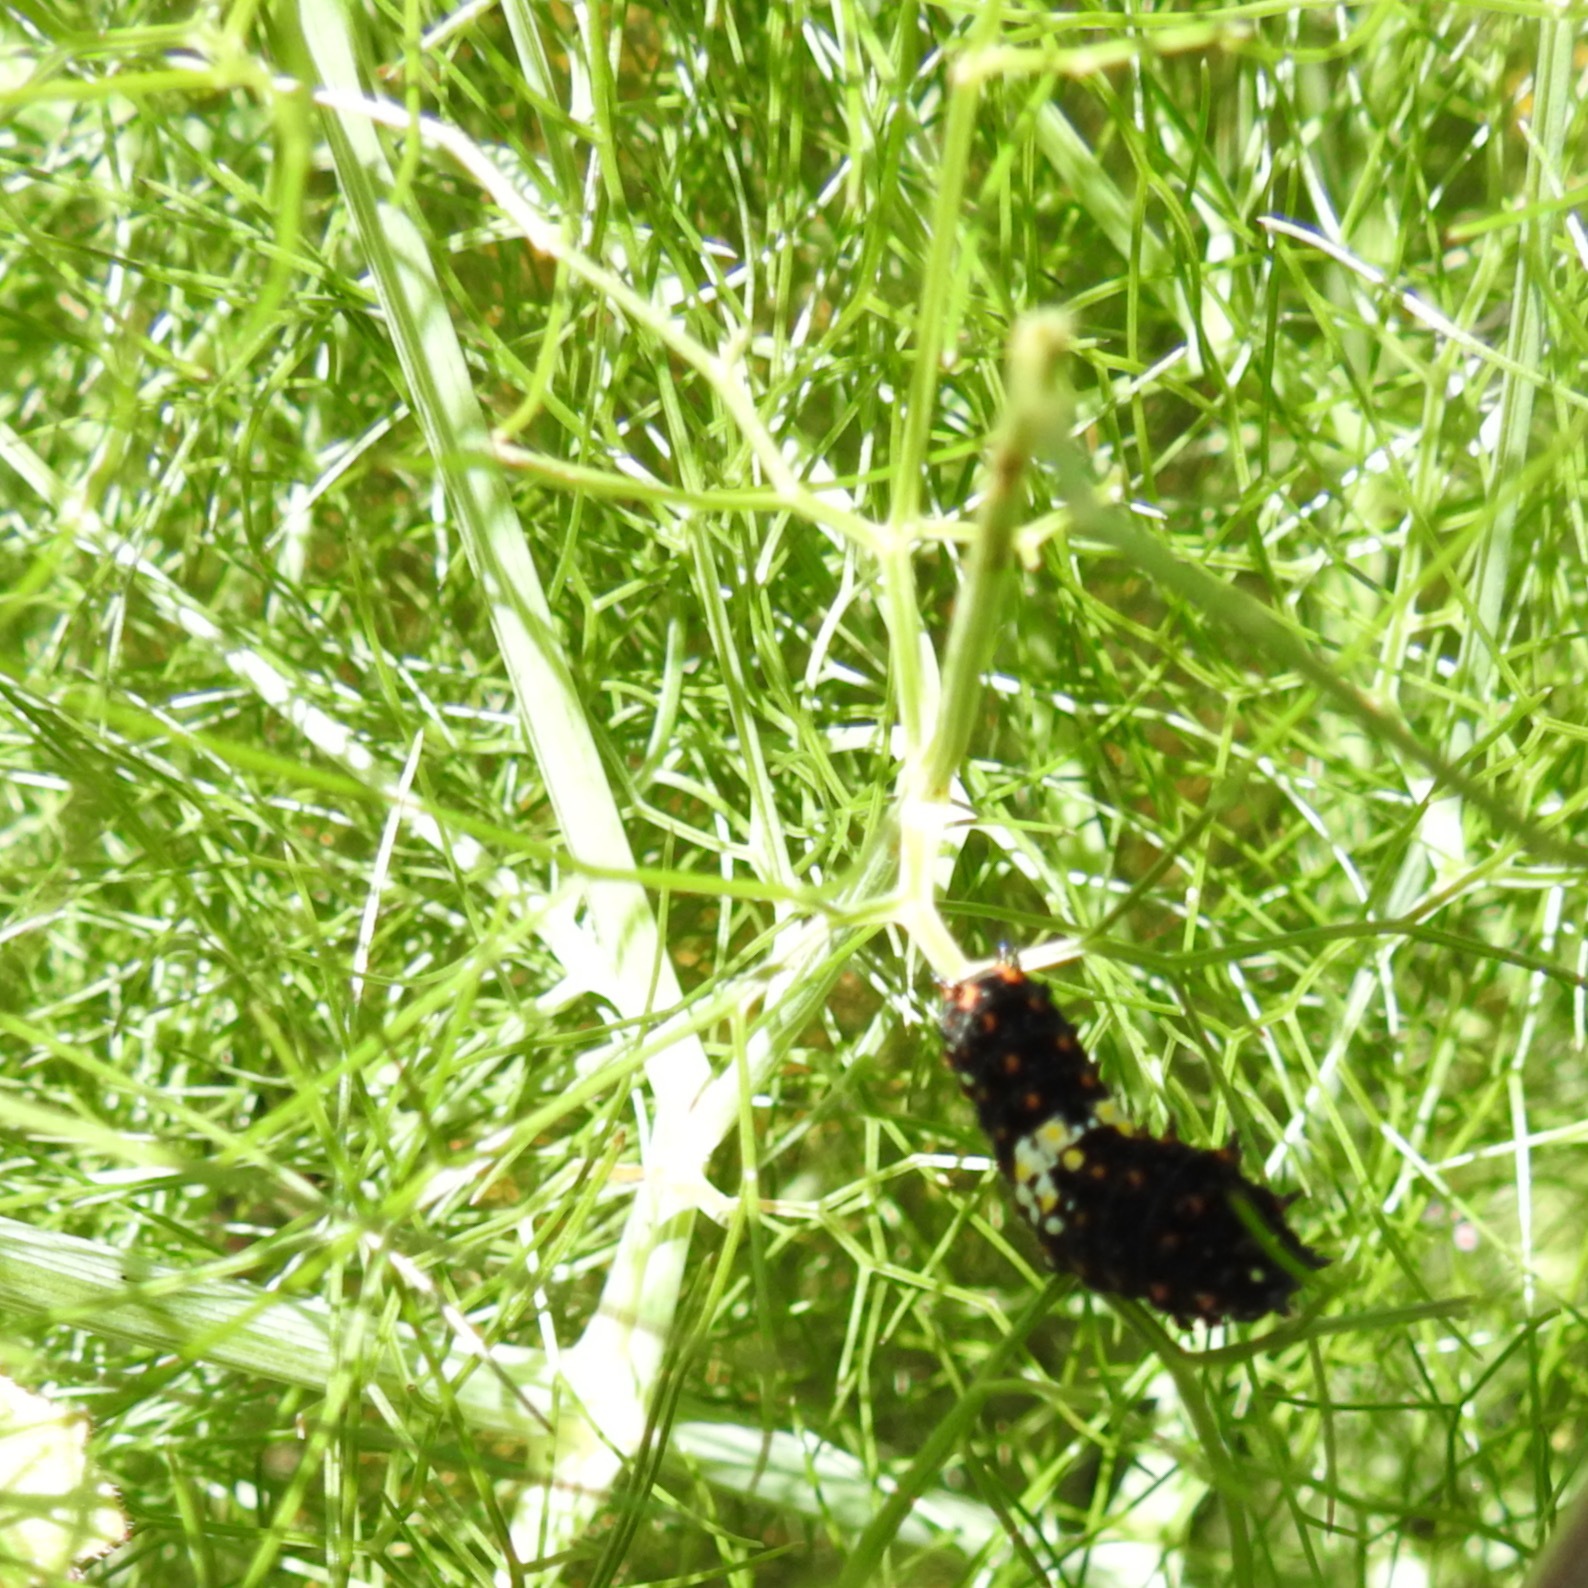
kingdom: Animalia
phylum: Arthropoda
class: Insecta
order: Lepidoptera
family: Papilionidae
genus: Papilio
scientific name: Papilio zelicaon
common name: Anise swallowtail
